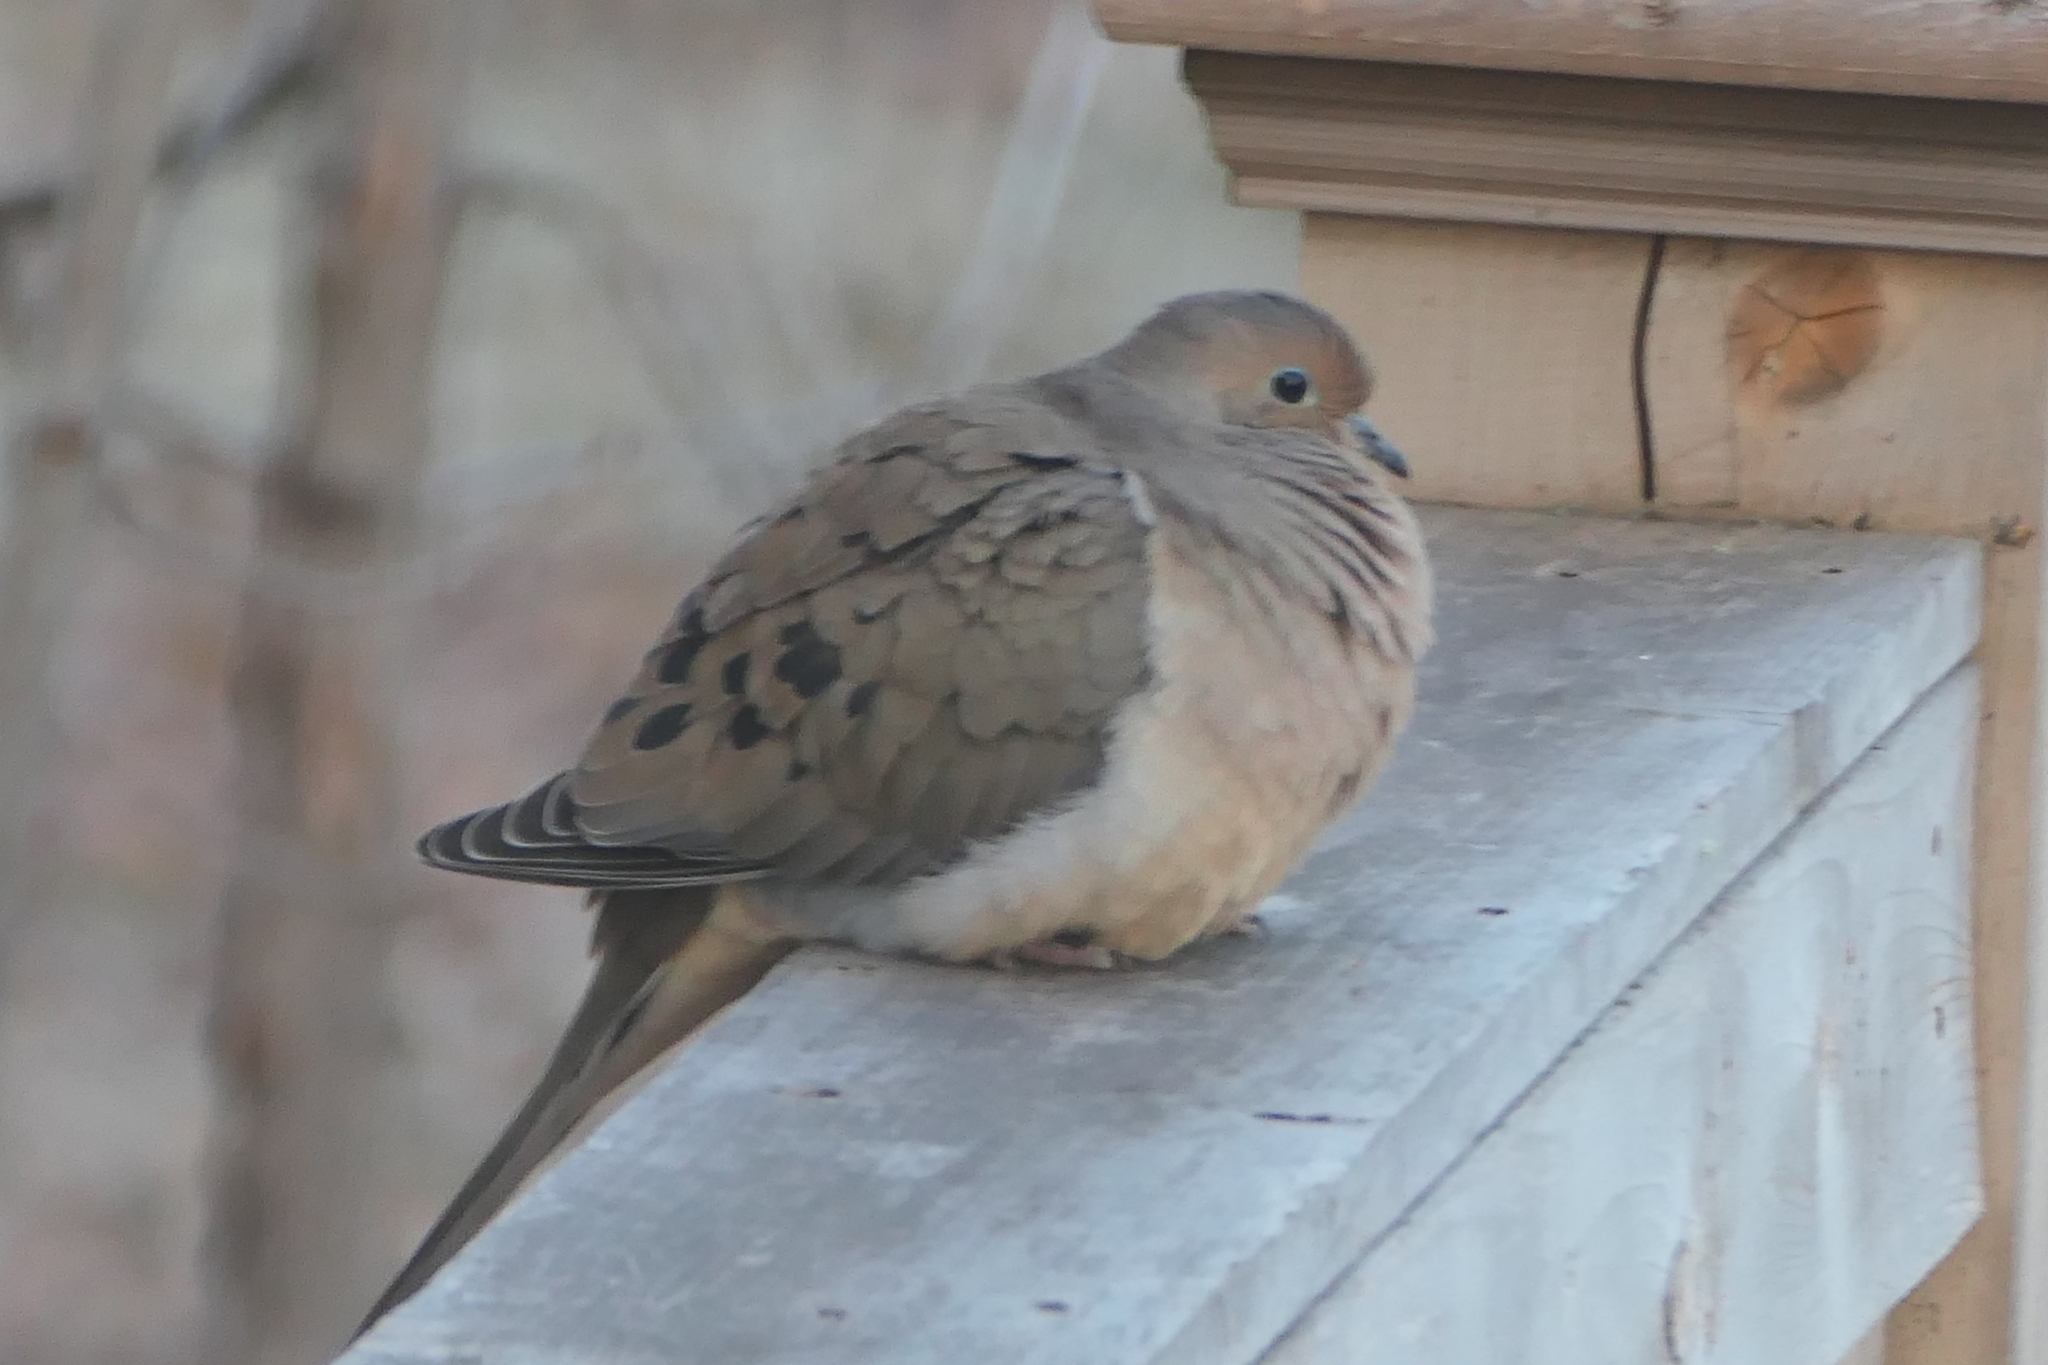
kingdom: Animalia
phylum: Chordata
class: Aves
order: Columbiformes
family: Columbidae
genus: Zenaida
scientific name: Zenaida macroura
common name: Mourning dove
